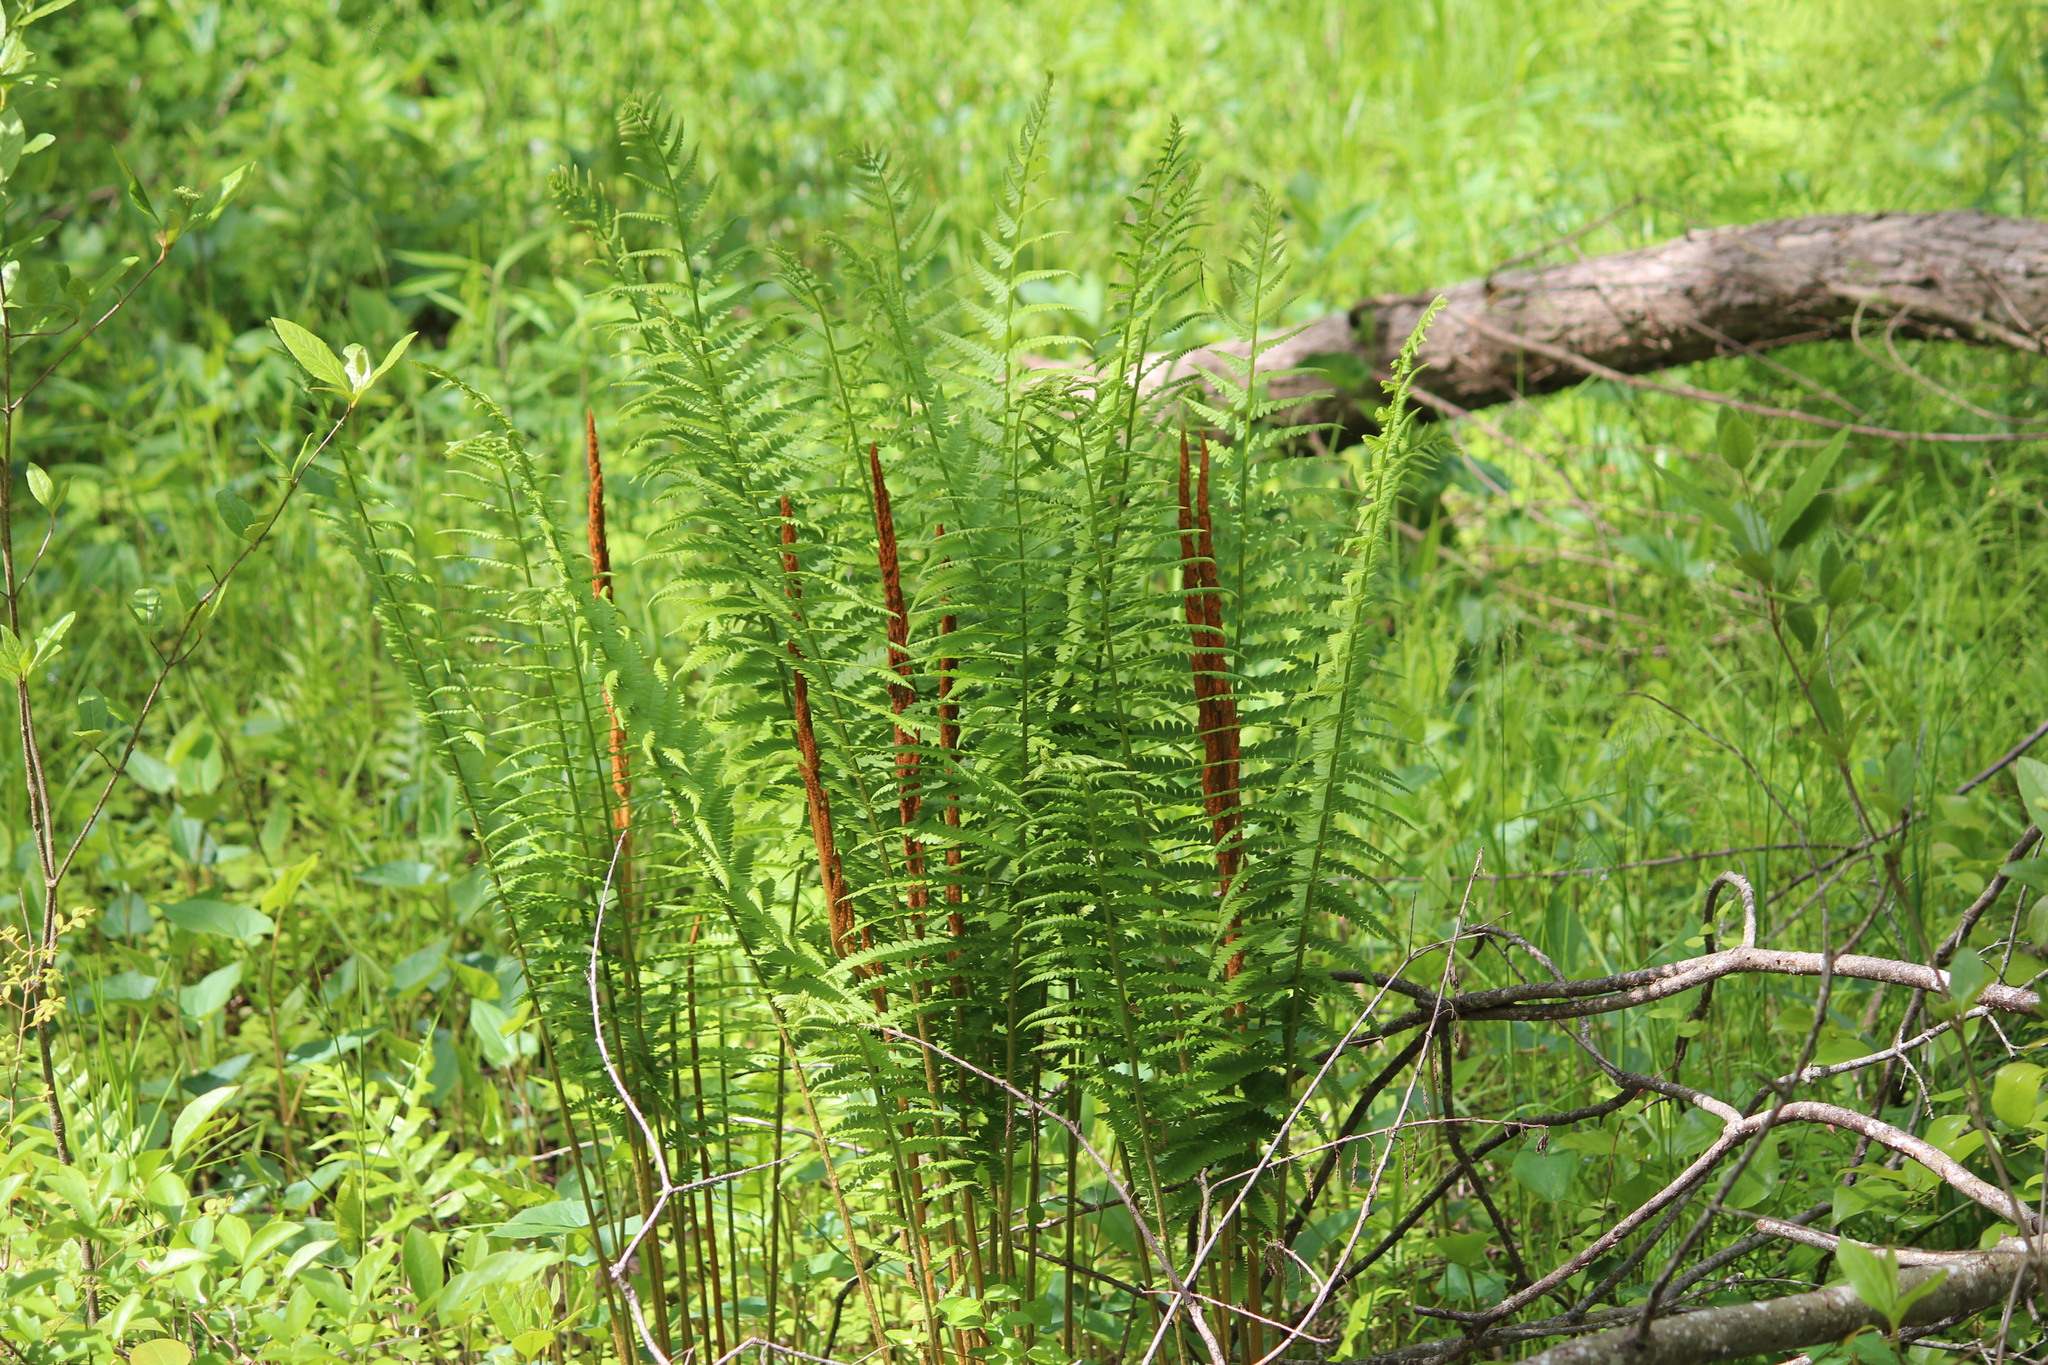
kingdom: Plantae
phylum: Tracheophyta
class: Polypodiopsida
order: Osmundales
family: Osmundaceae
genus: Osmundastrum
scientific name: Osmundastrum cinnamomeum
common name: Cinnamon fern
